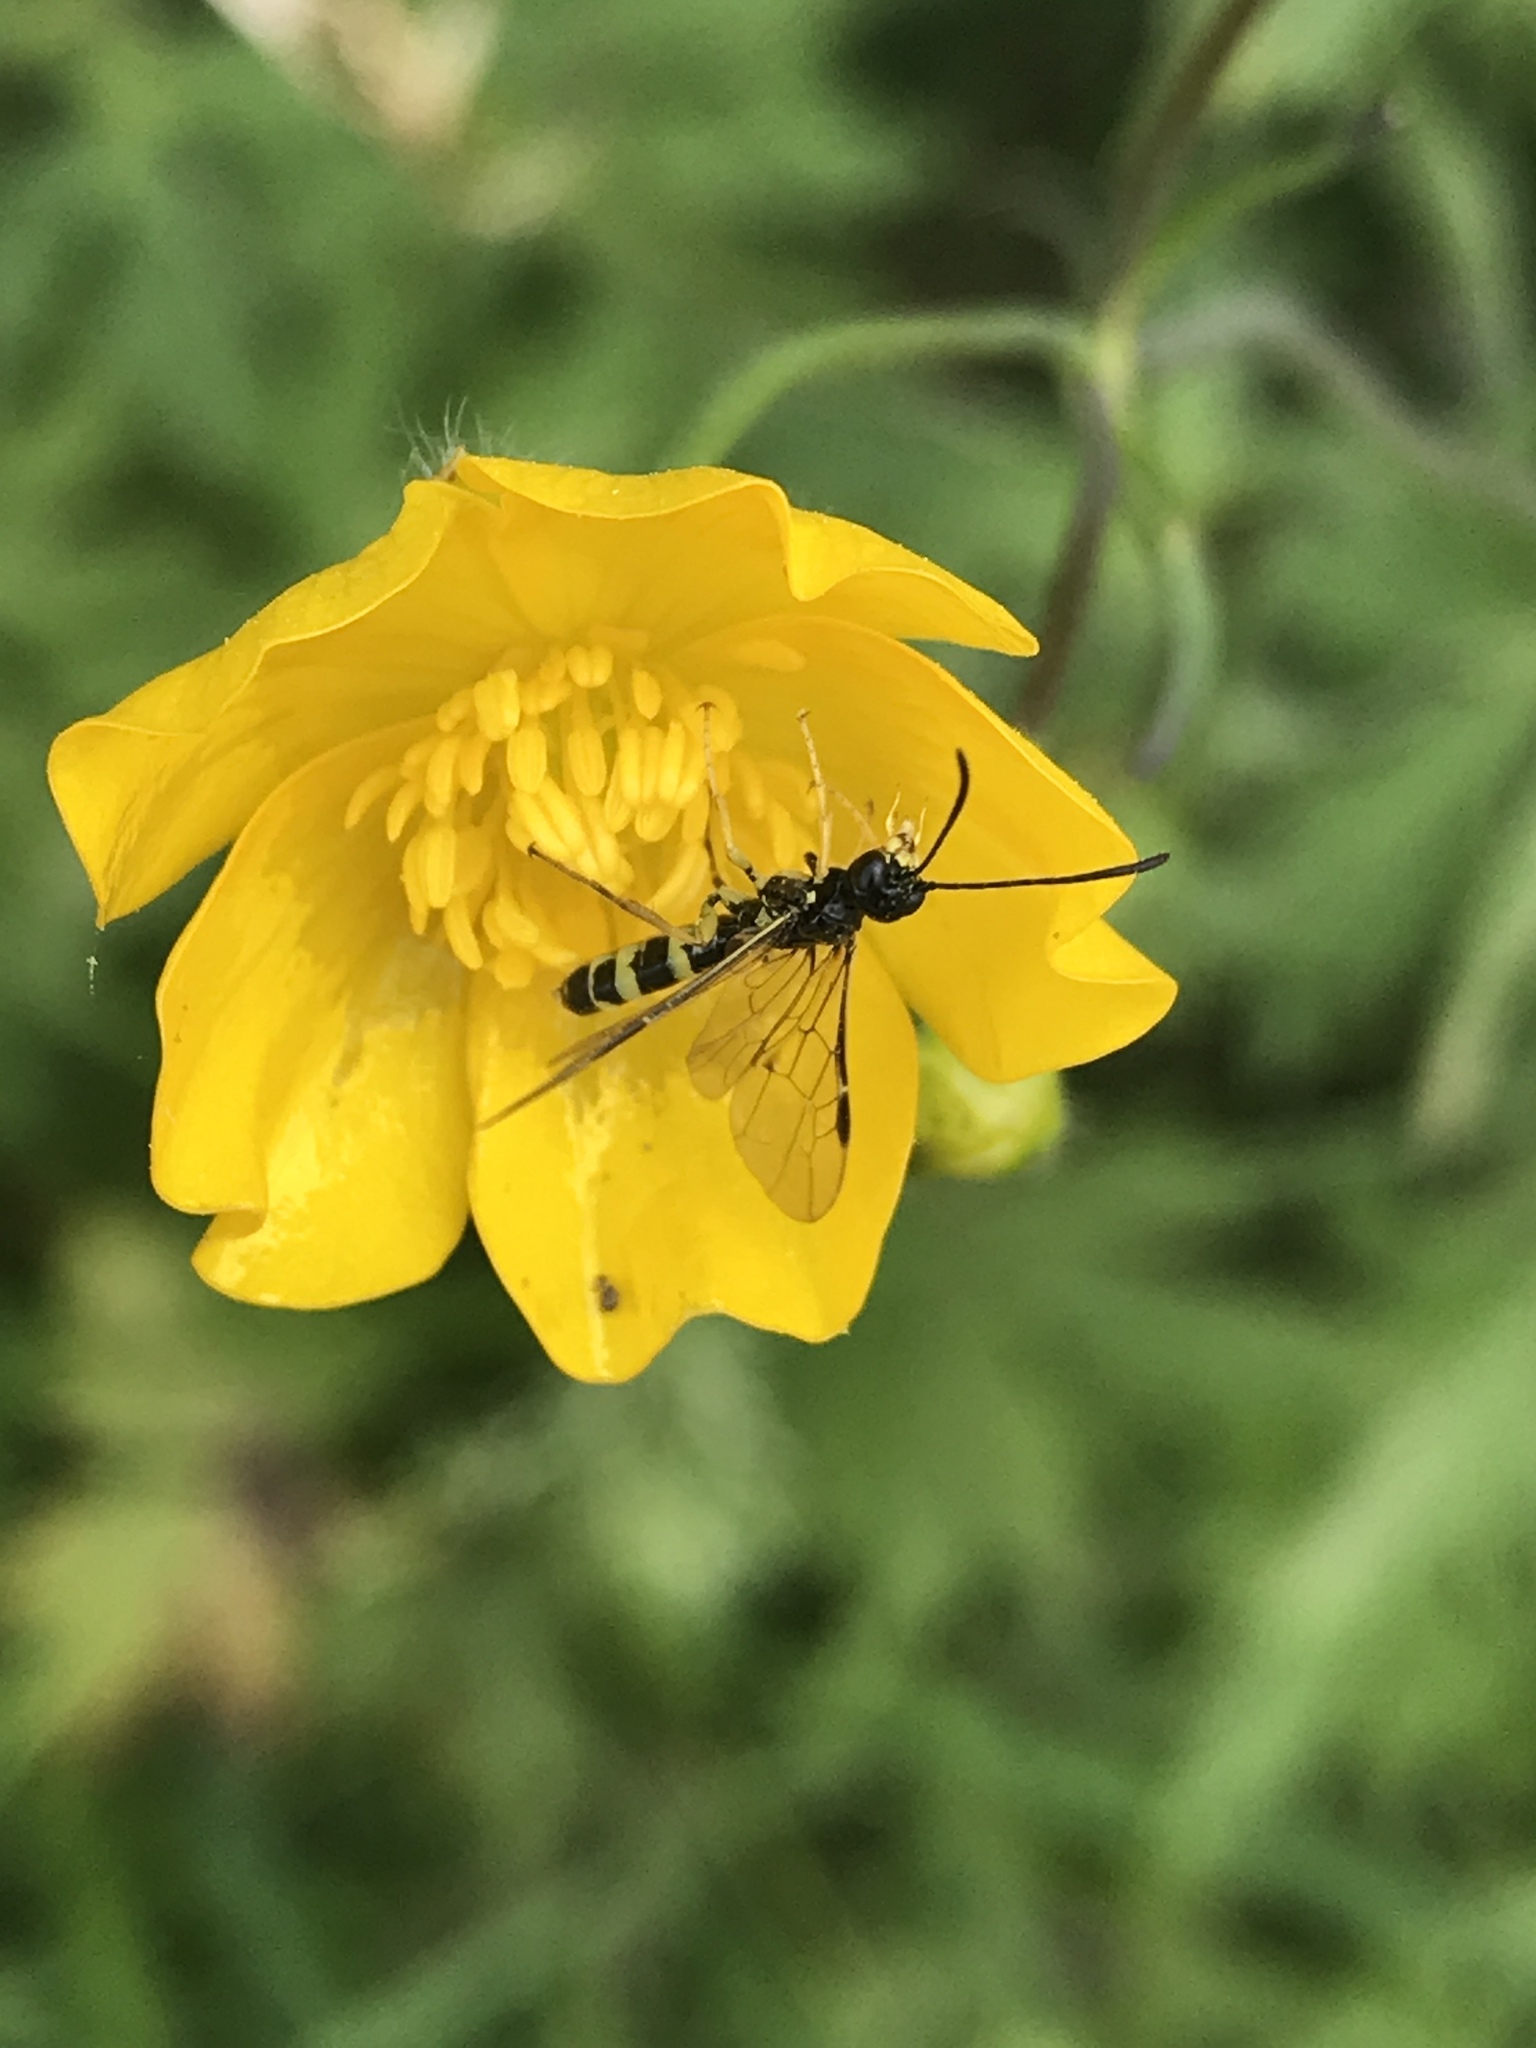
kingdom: Animalia
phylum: Arthropoda
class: Insecta
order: Hymenoptera
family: Cephidae
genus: Cephus
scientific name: Cephus pygmeus
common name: Wasp
